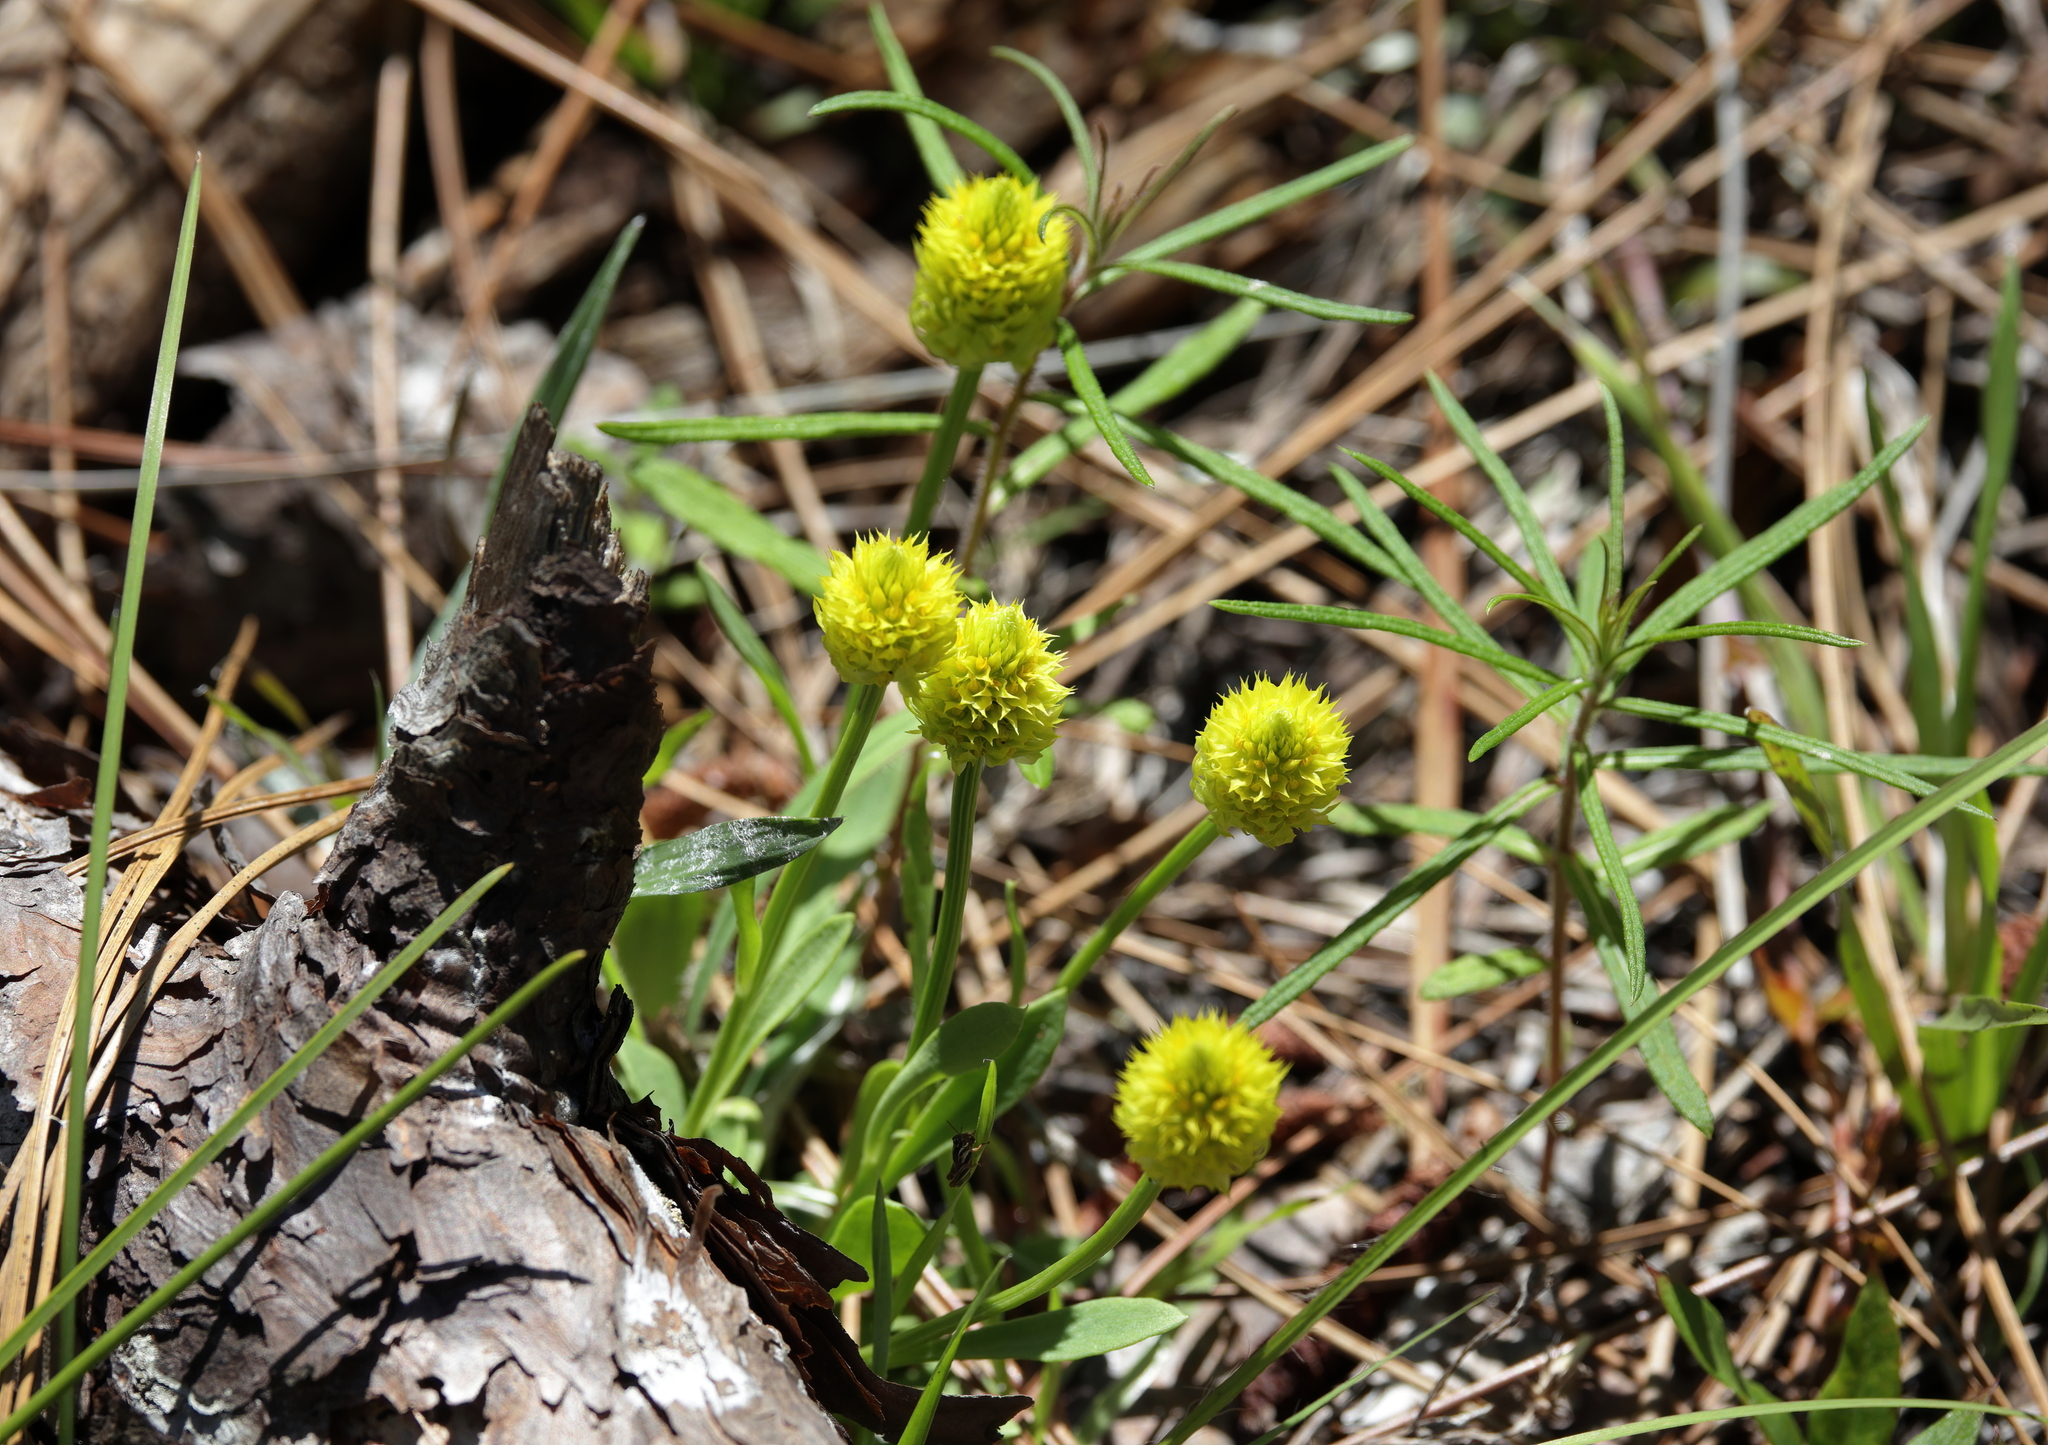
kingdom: Plantae
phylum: Tracheophyta
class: Magnoliopsida
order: Fabales
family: Polygalaceae
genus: Polygala
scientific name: Polygala nana
